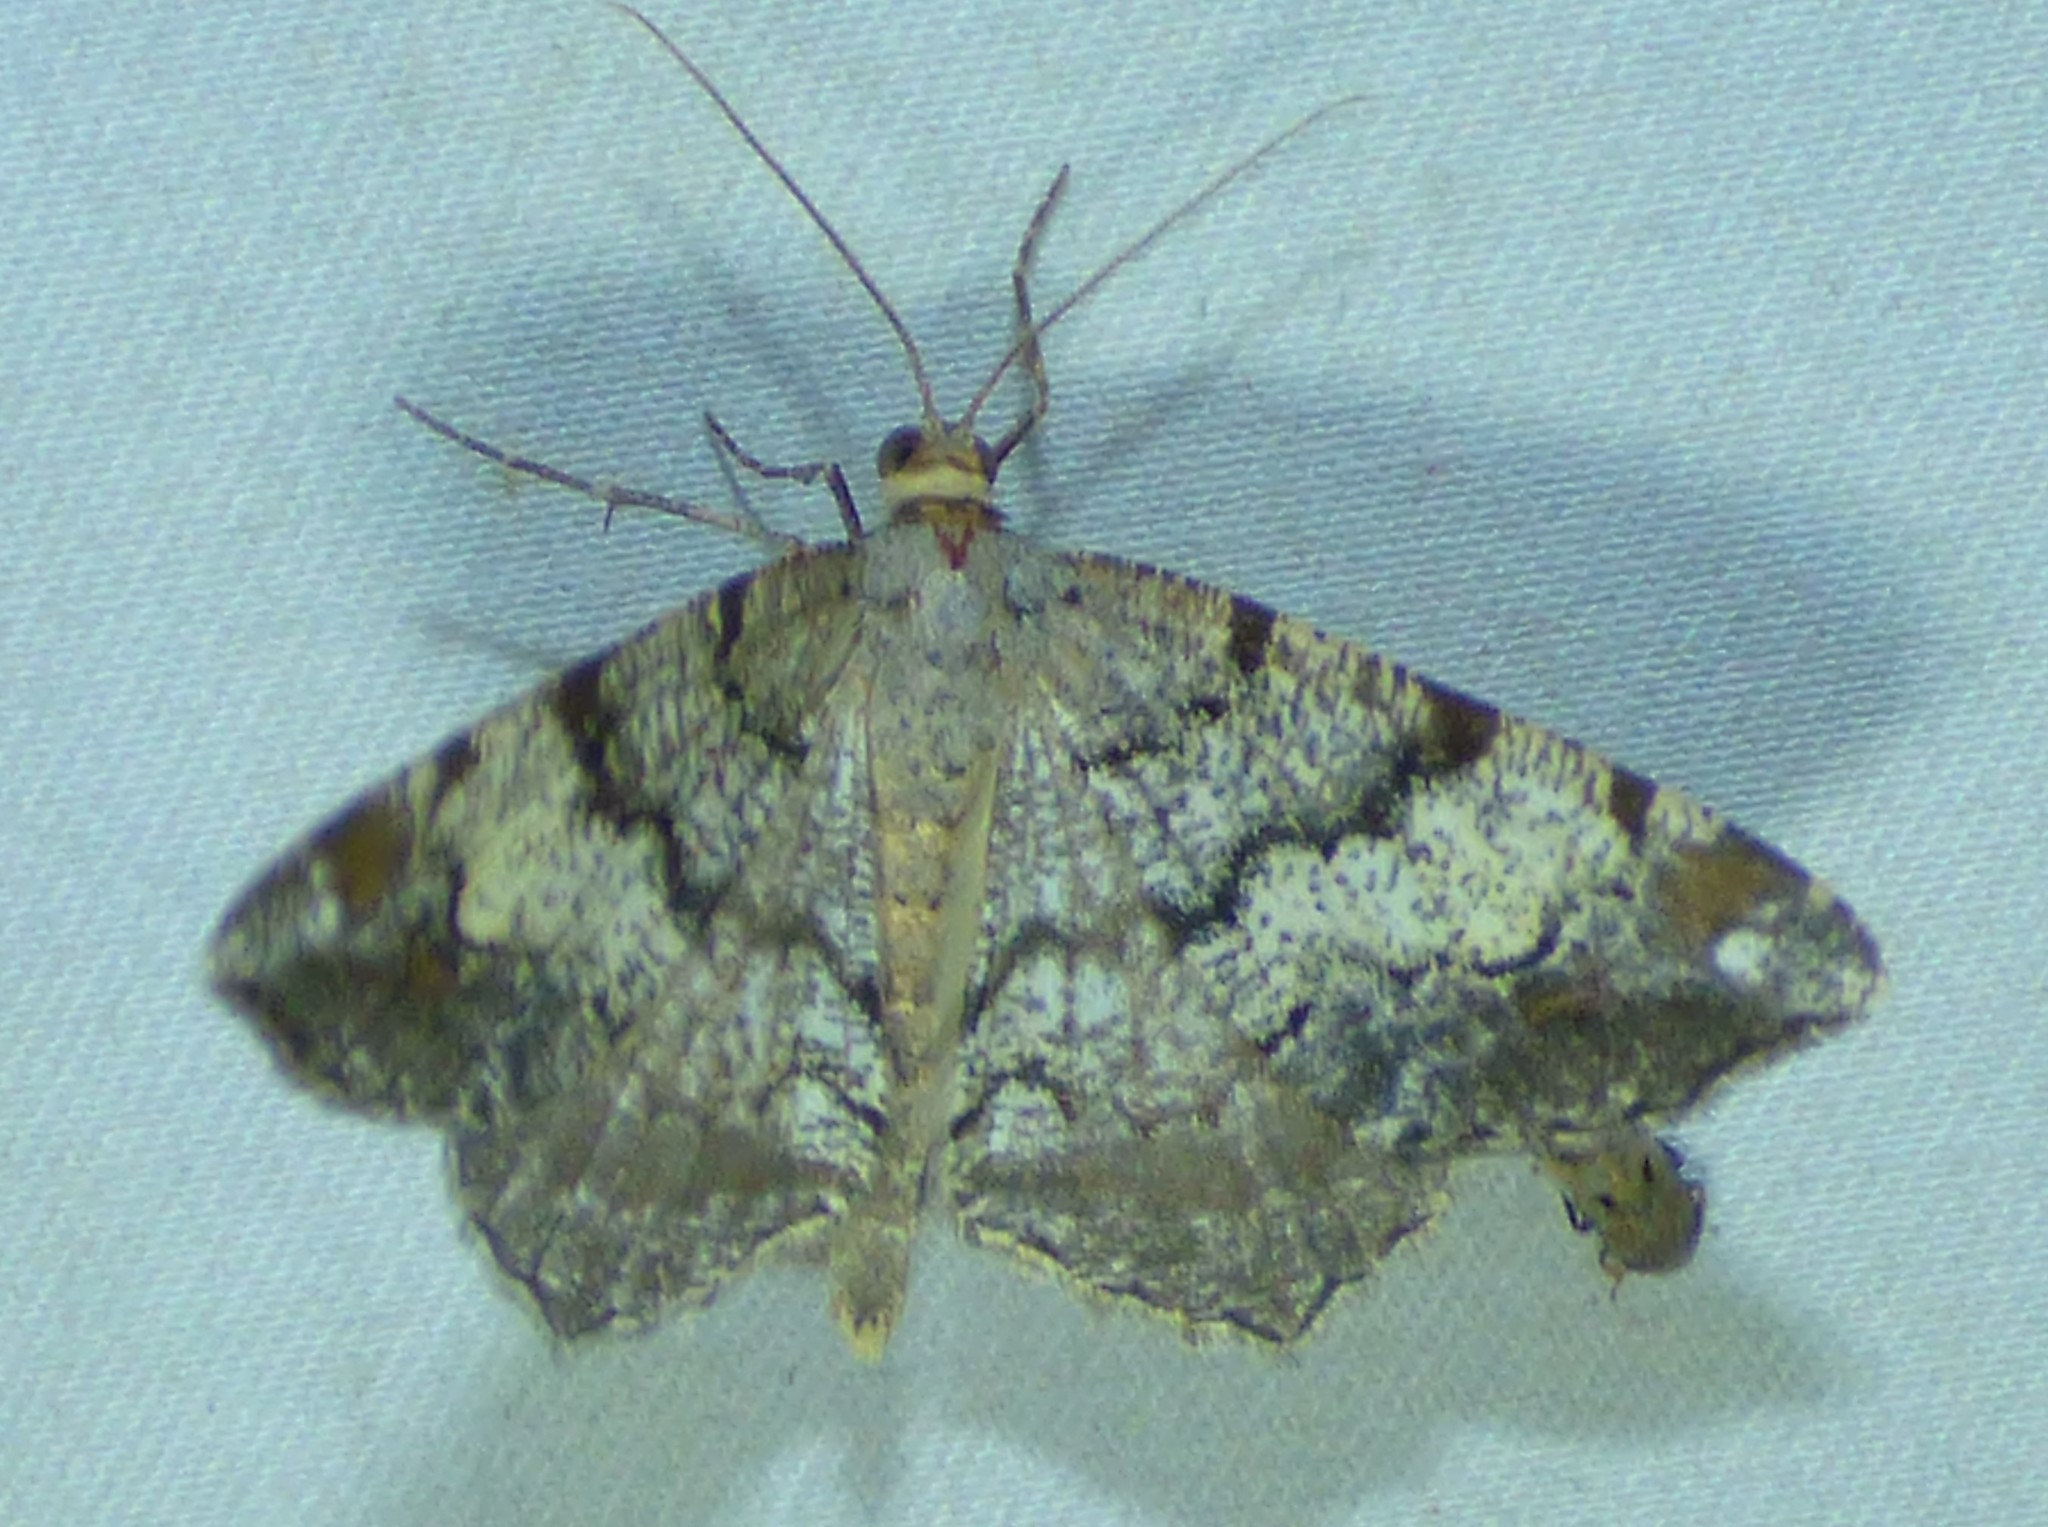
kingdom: Animalia
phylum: Arthropoda
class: Insecta
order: Lepidoptera
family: Geometridae
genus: Macaria
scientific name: Macaria granitata
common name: Granite moth
